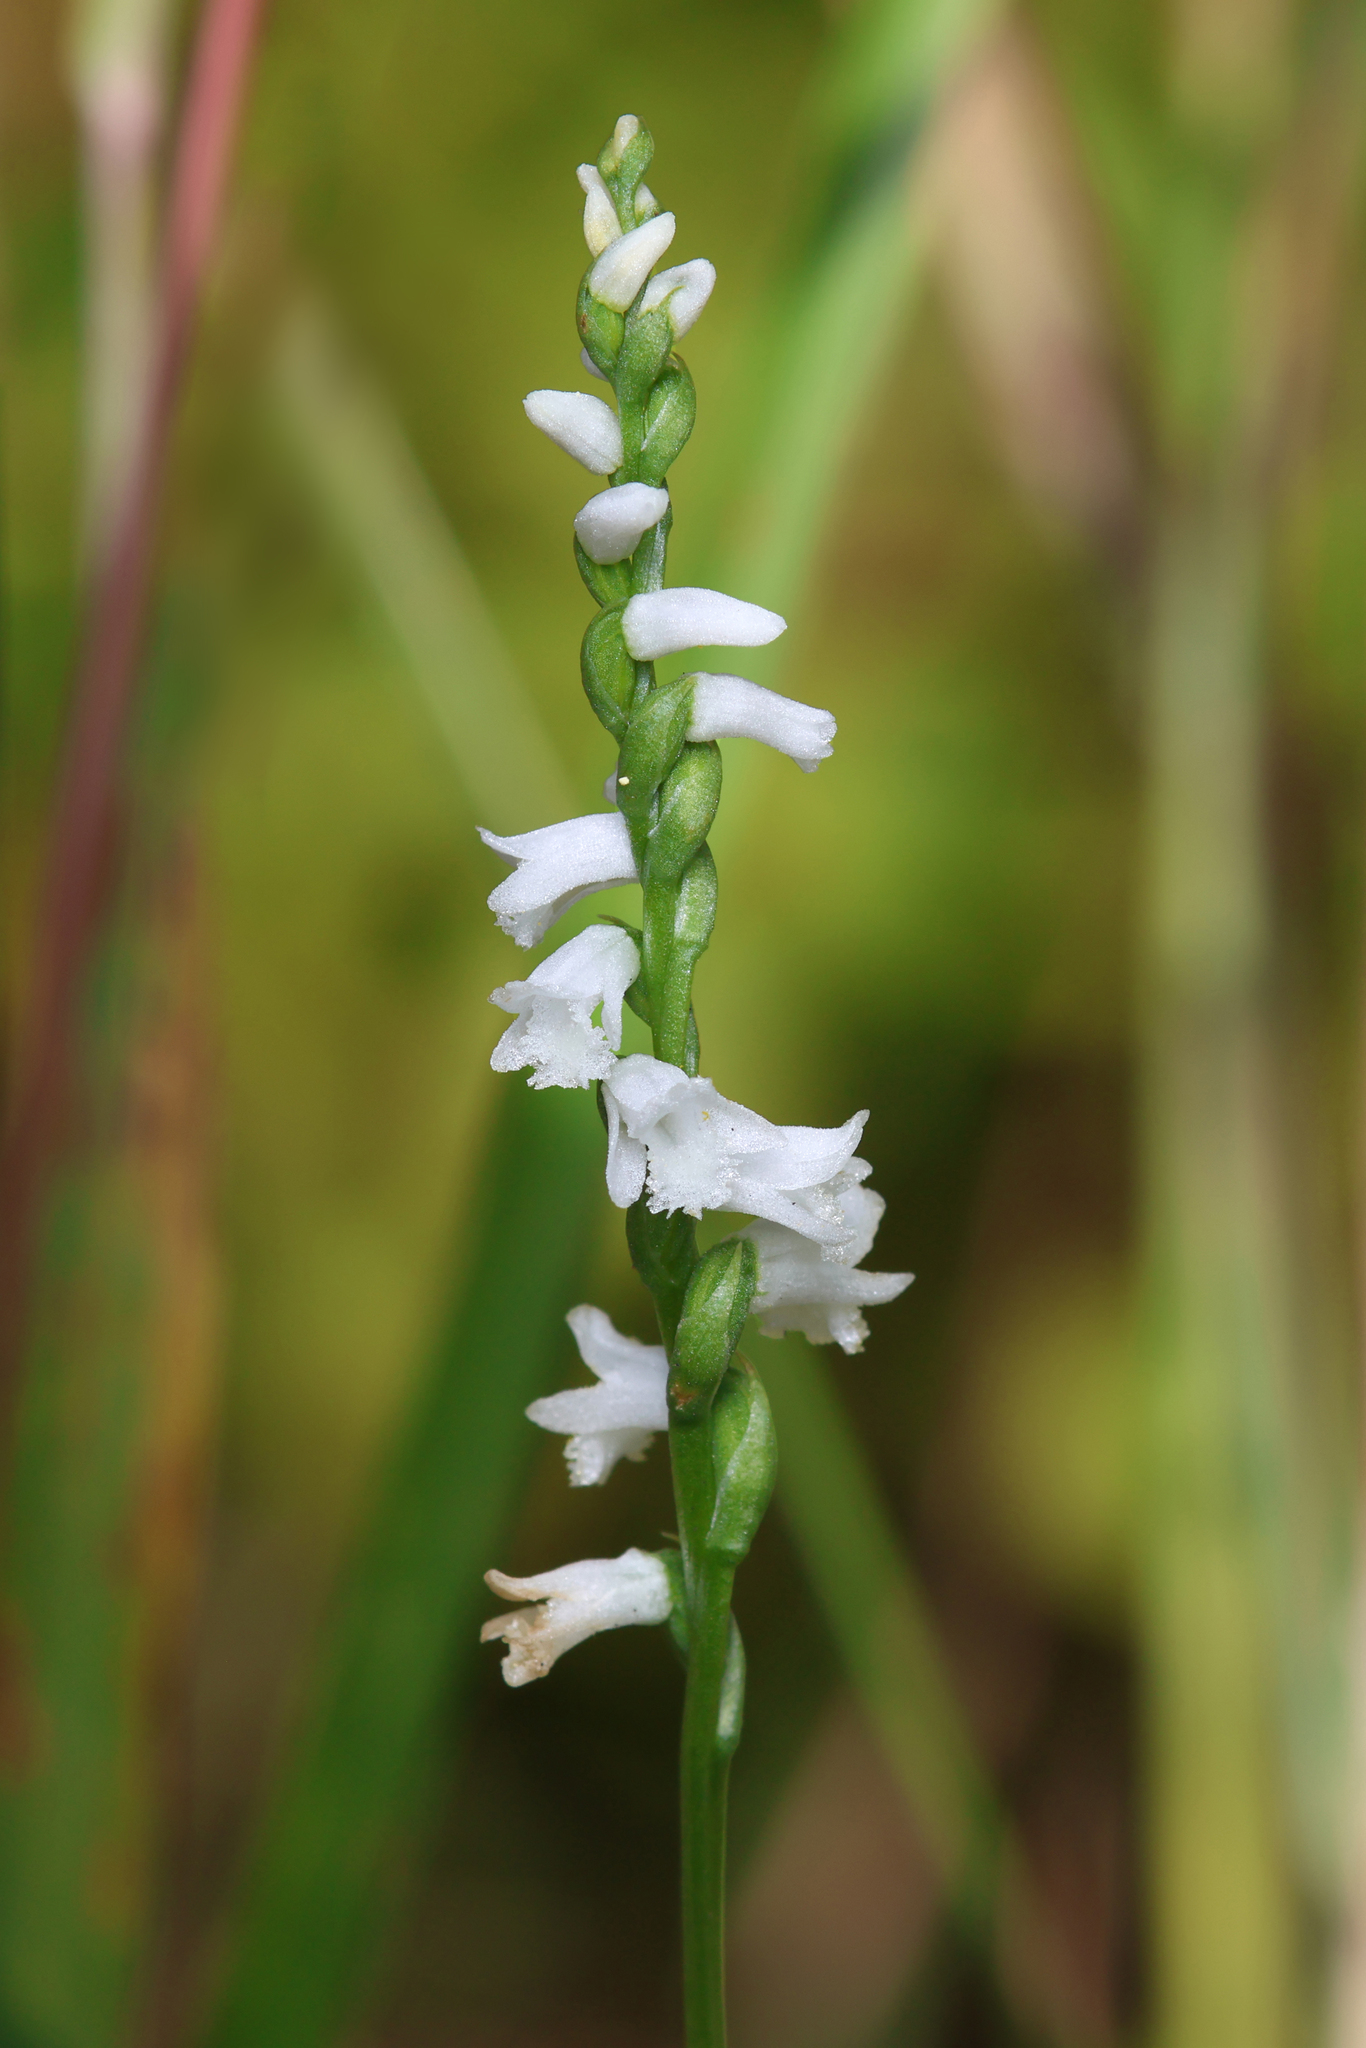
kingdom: Plantae
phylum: Tracheophyta
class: Liliopsida
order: Asparagales
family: Orchidaceae
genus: Spiranthes
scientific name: Spiranthes tuberosa
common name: Little ladies'-tresses
